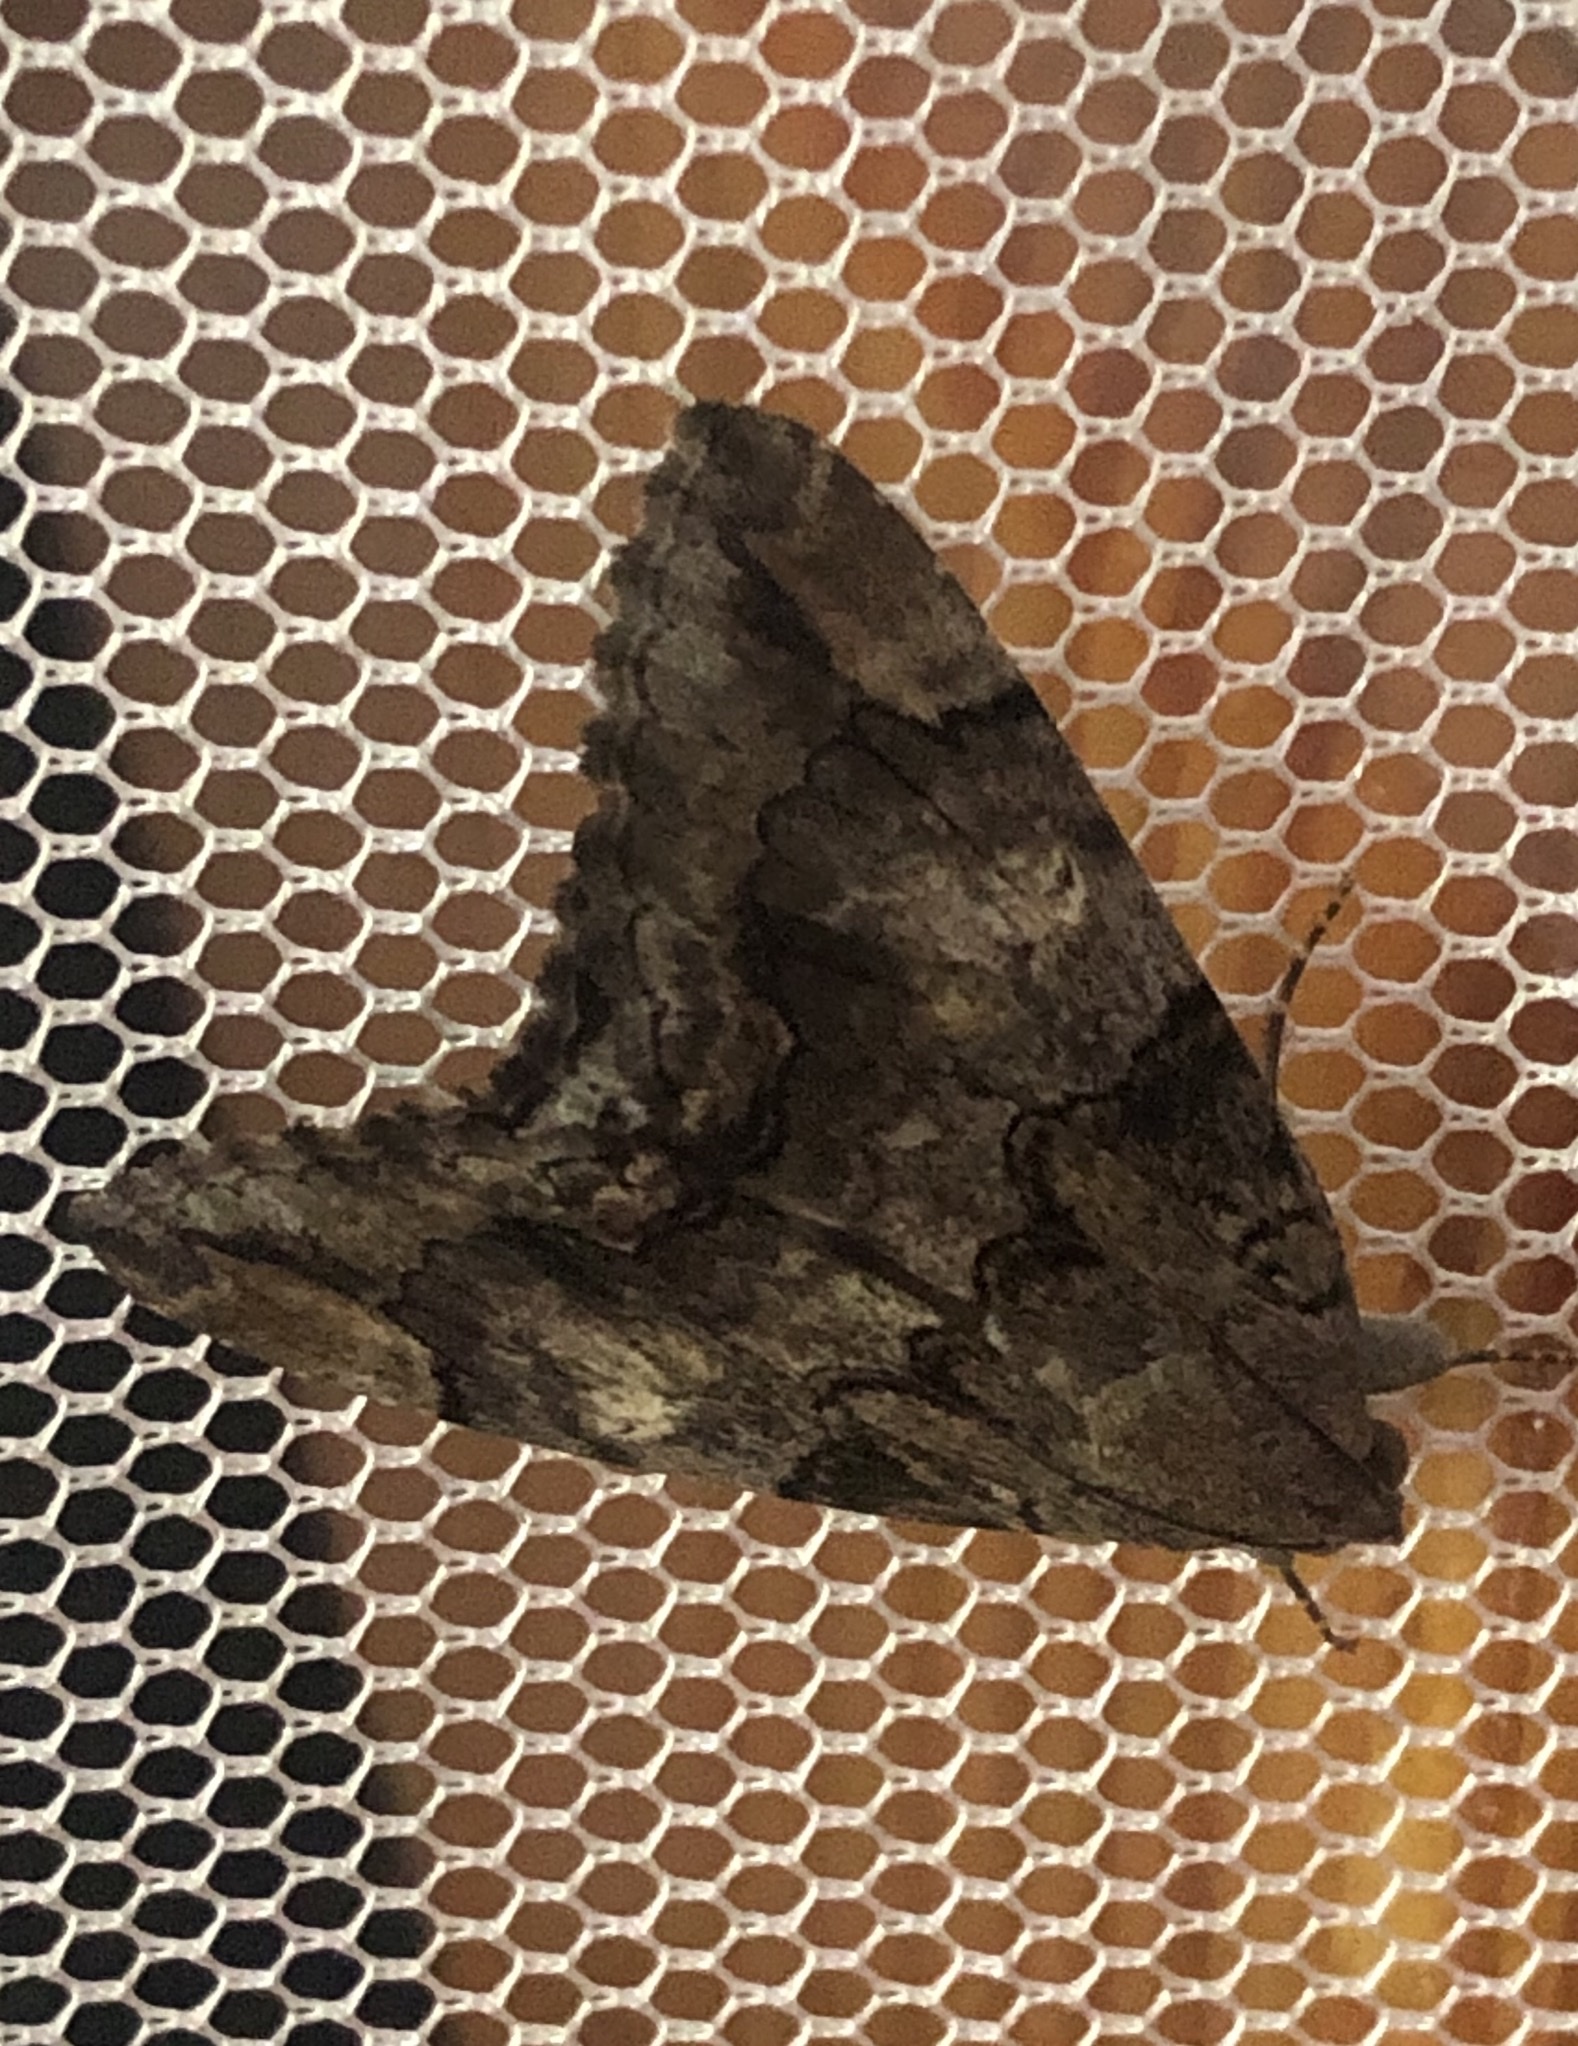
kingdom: Animalia
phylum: Arthropoda
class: Insecta
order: Lepidoptera
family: Erebidae
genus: Achaea
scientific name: Achaea catella
